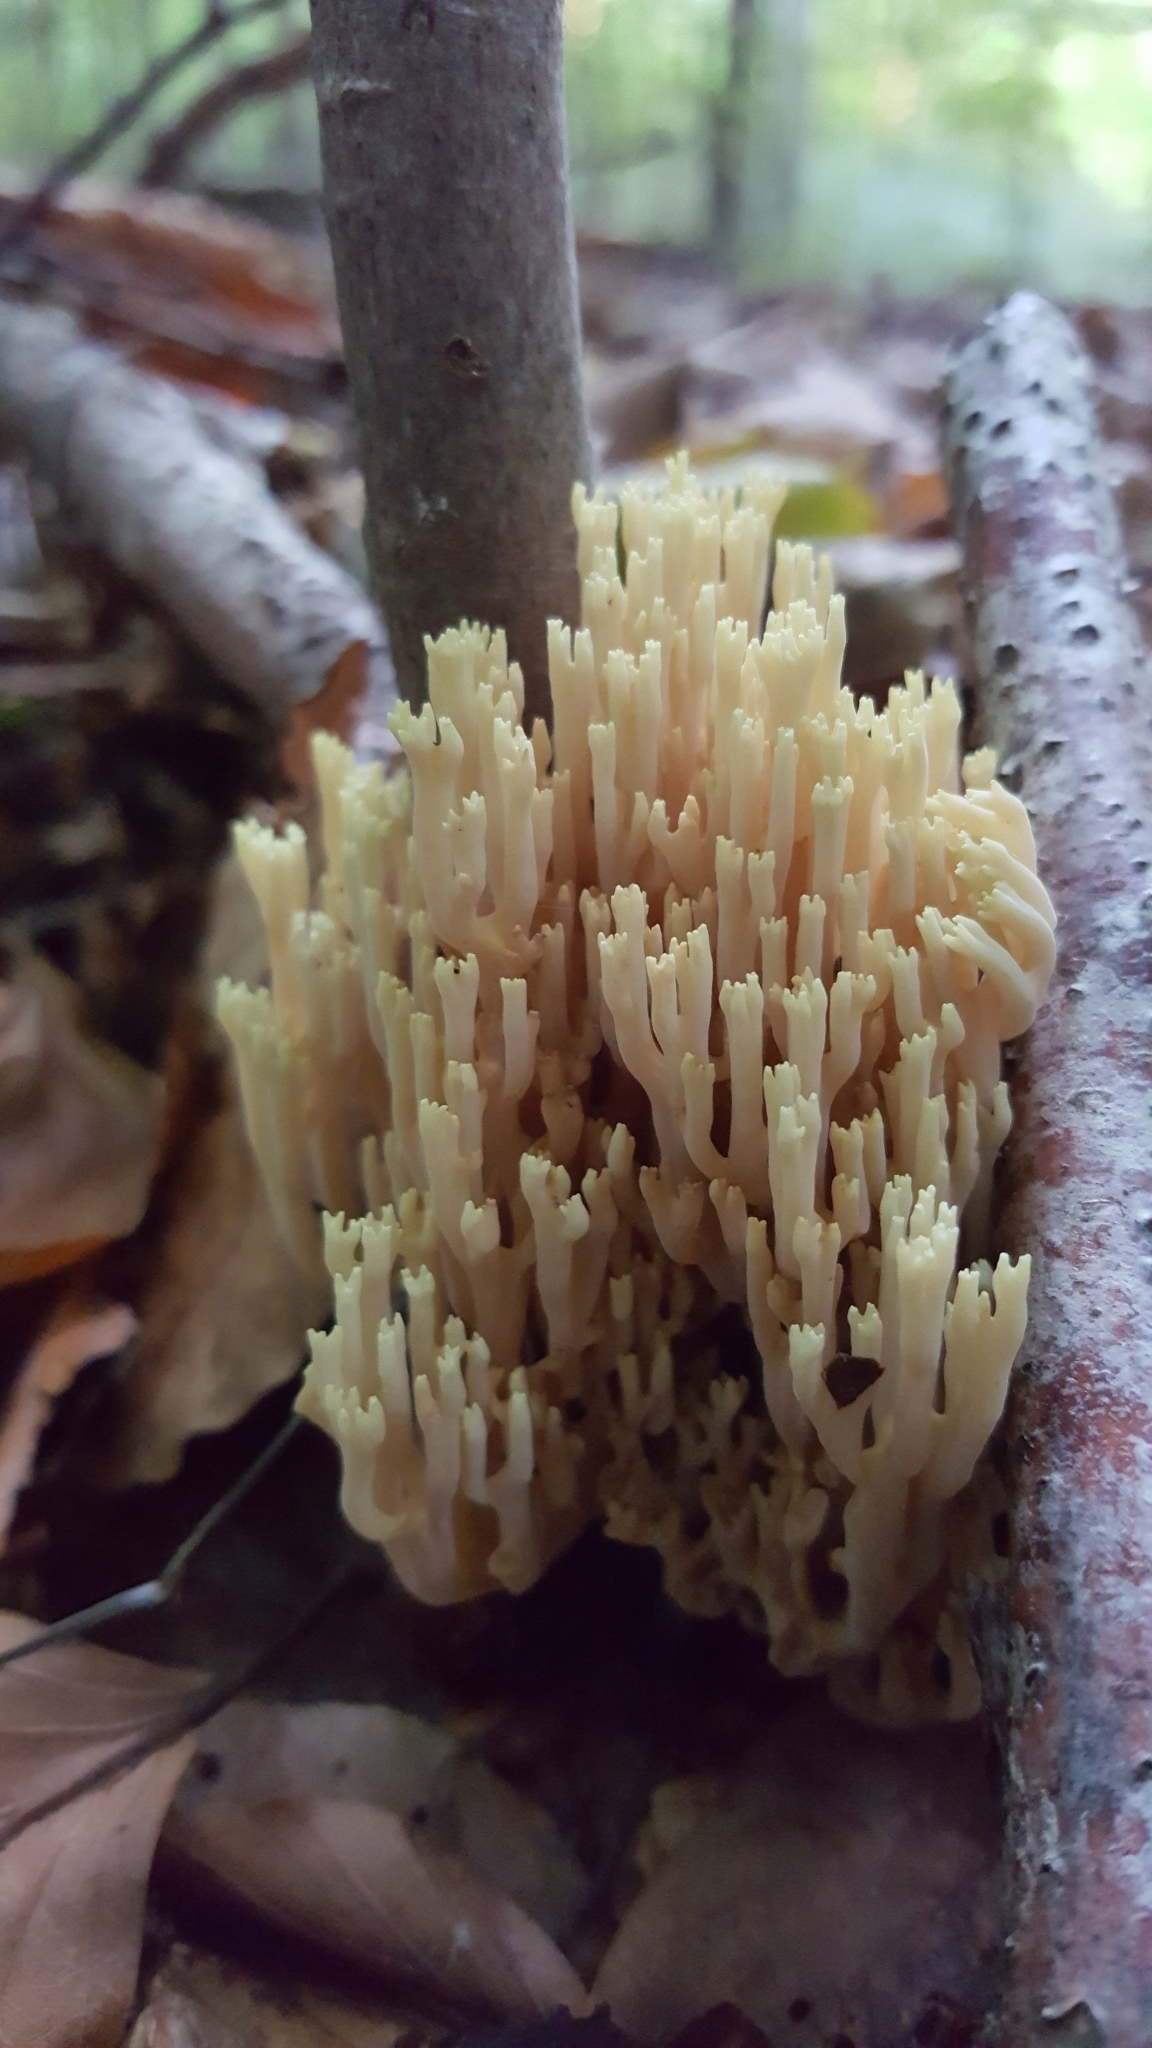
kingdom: Fungi
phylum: Basidiomycota
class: Agaricomycetes
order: Gomphales
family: Gomphaceae
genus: Ramaria
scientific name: Ramaria stricta
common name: Upright coral
